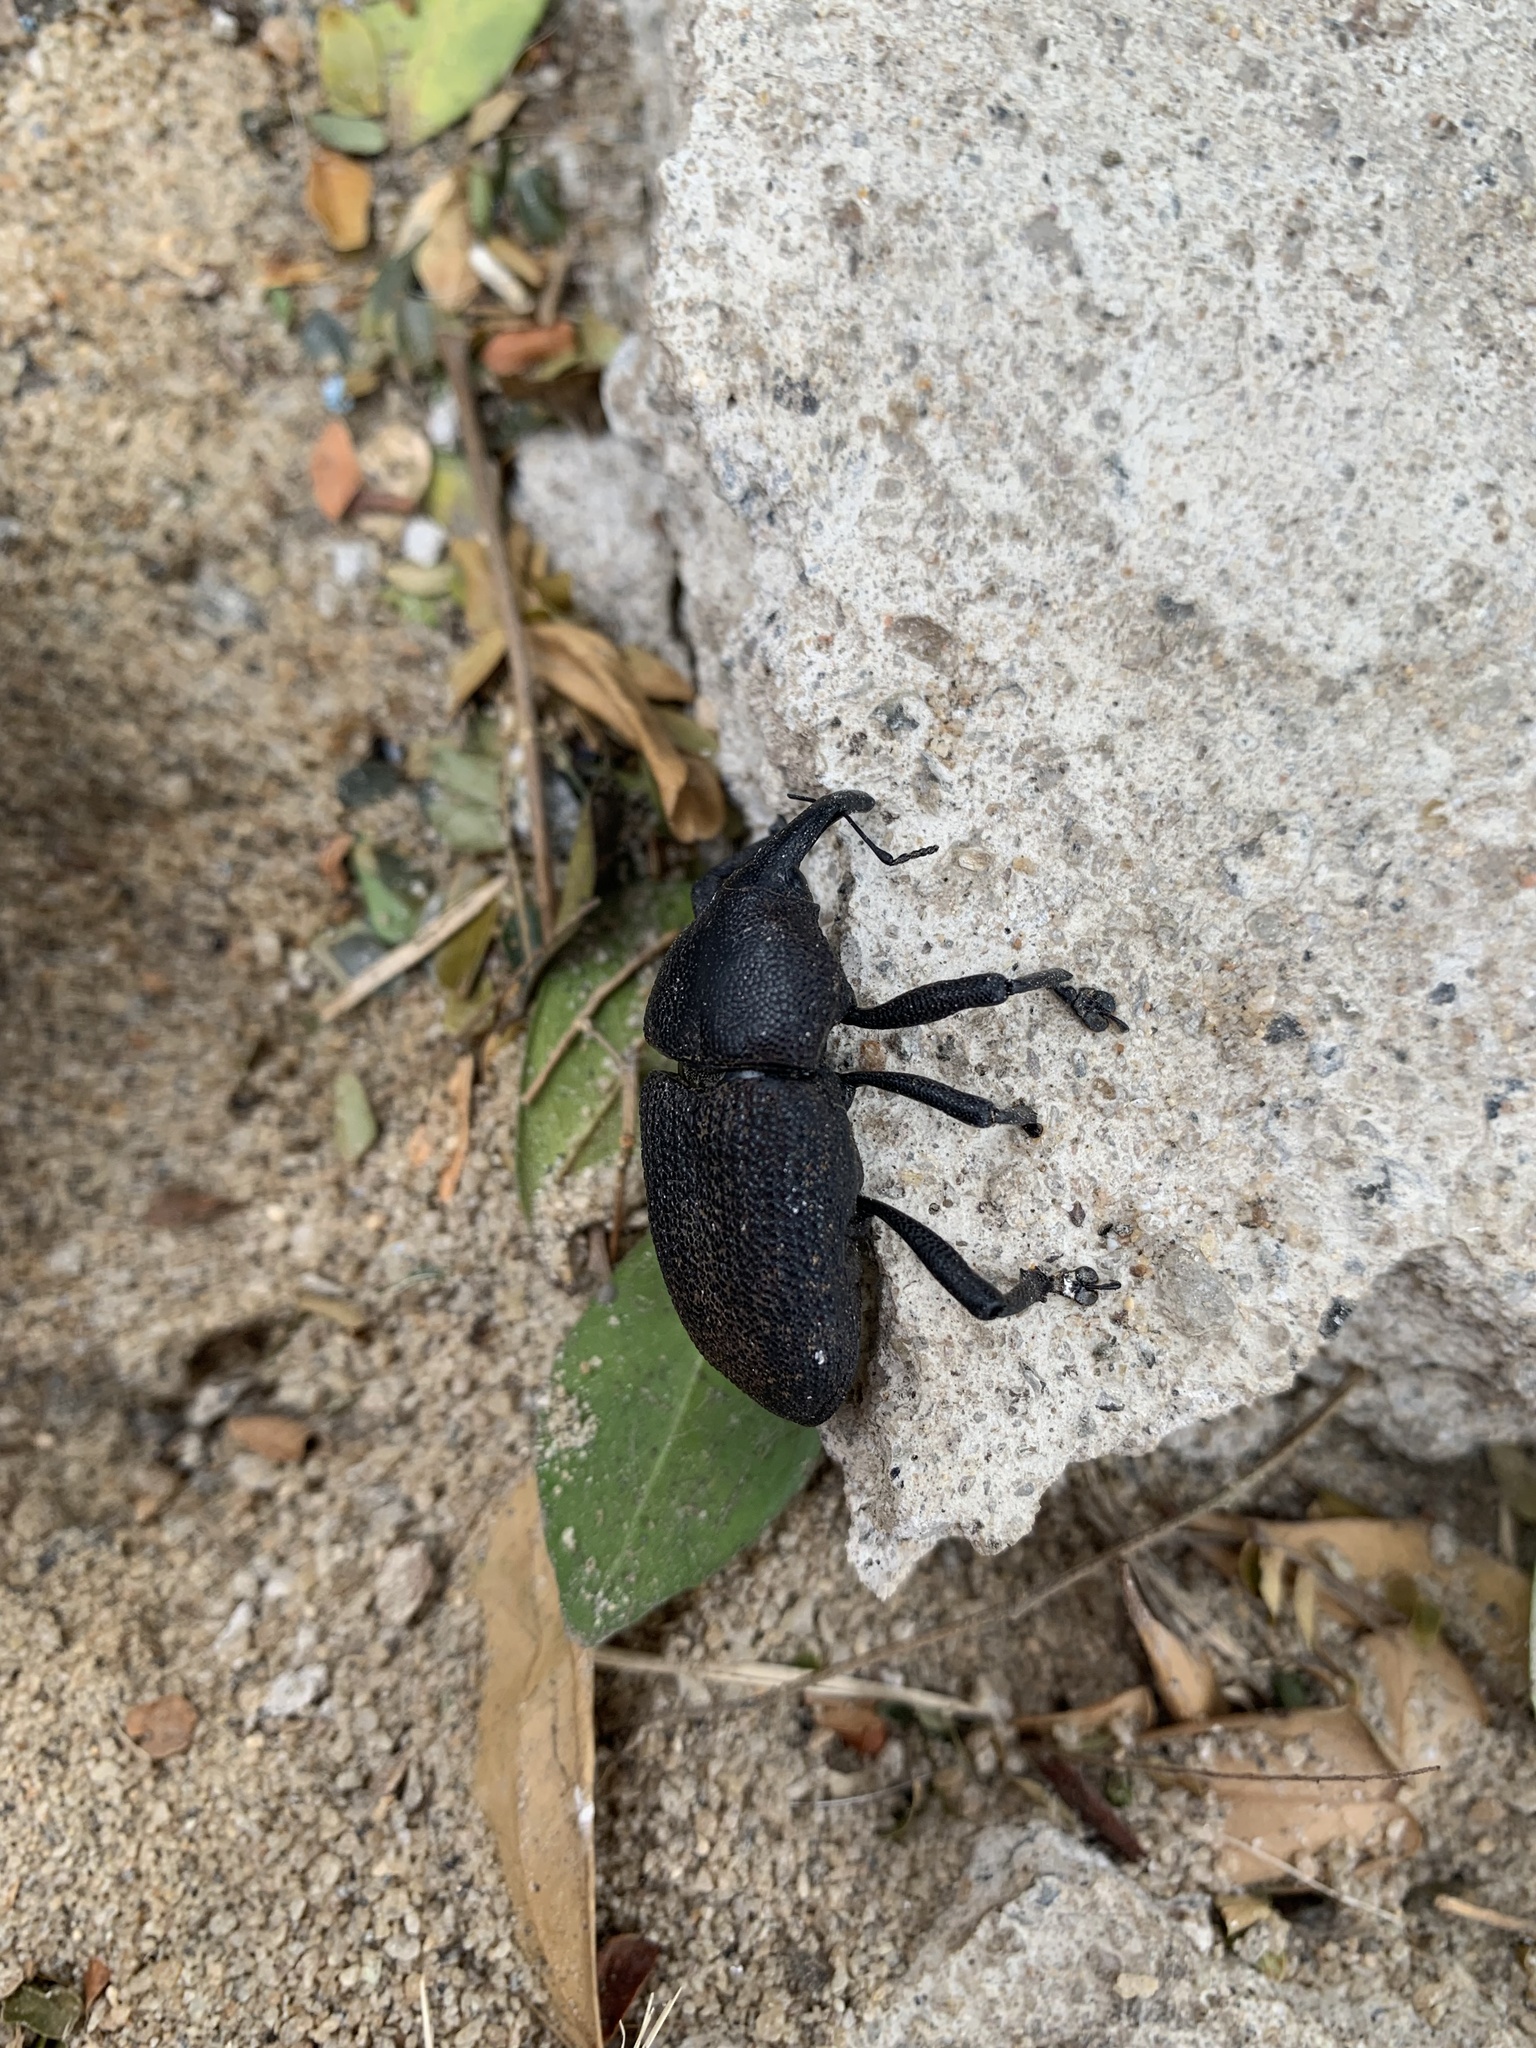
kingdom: Animalia
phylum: Arthropoda
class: Insecta
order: Coleoptera
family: Curculionidae
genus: Homalinotus
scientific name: Homalinotus coriaceus
